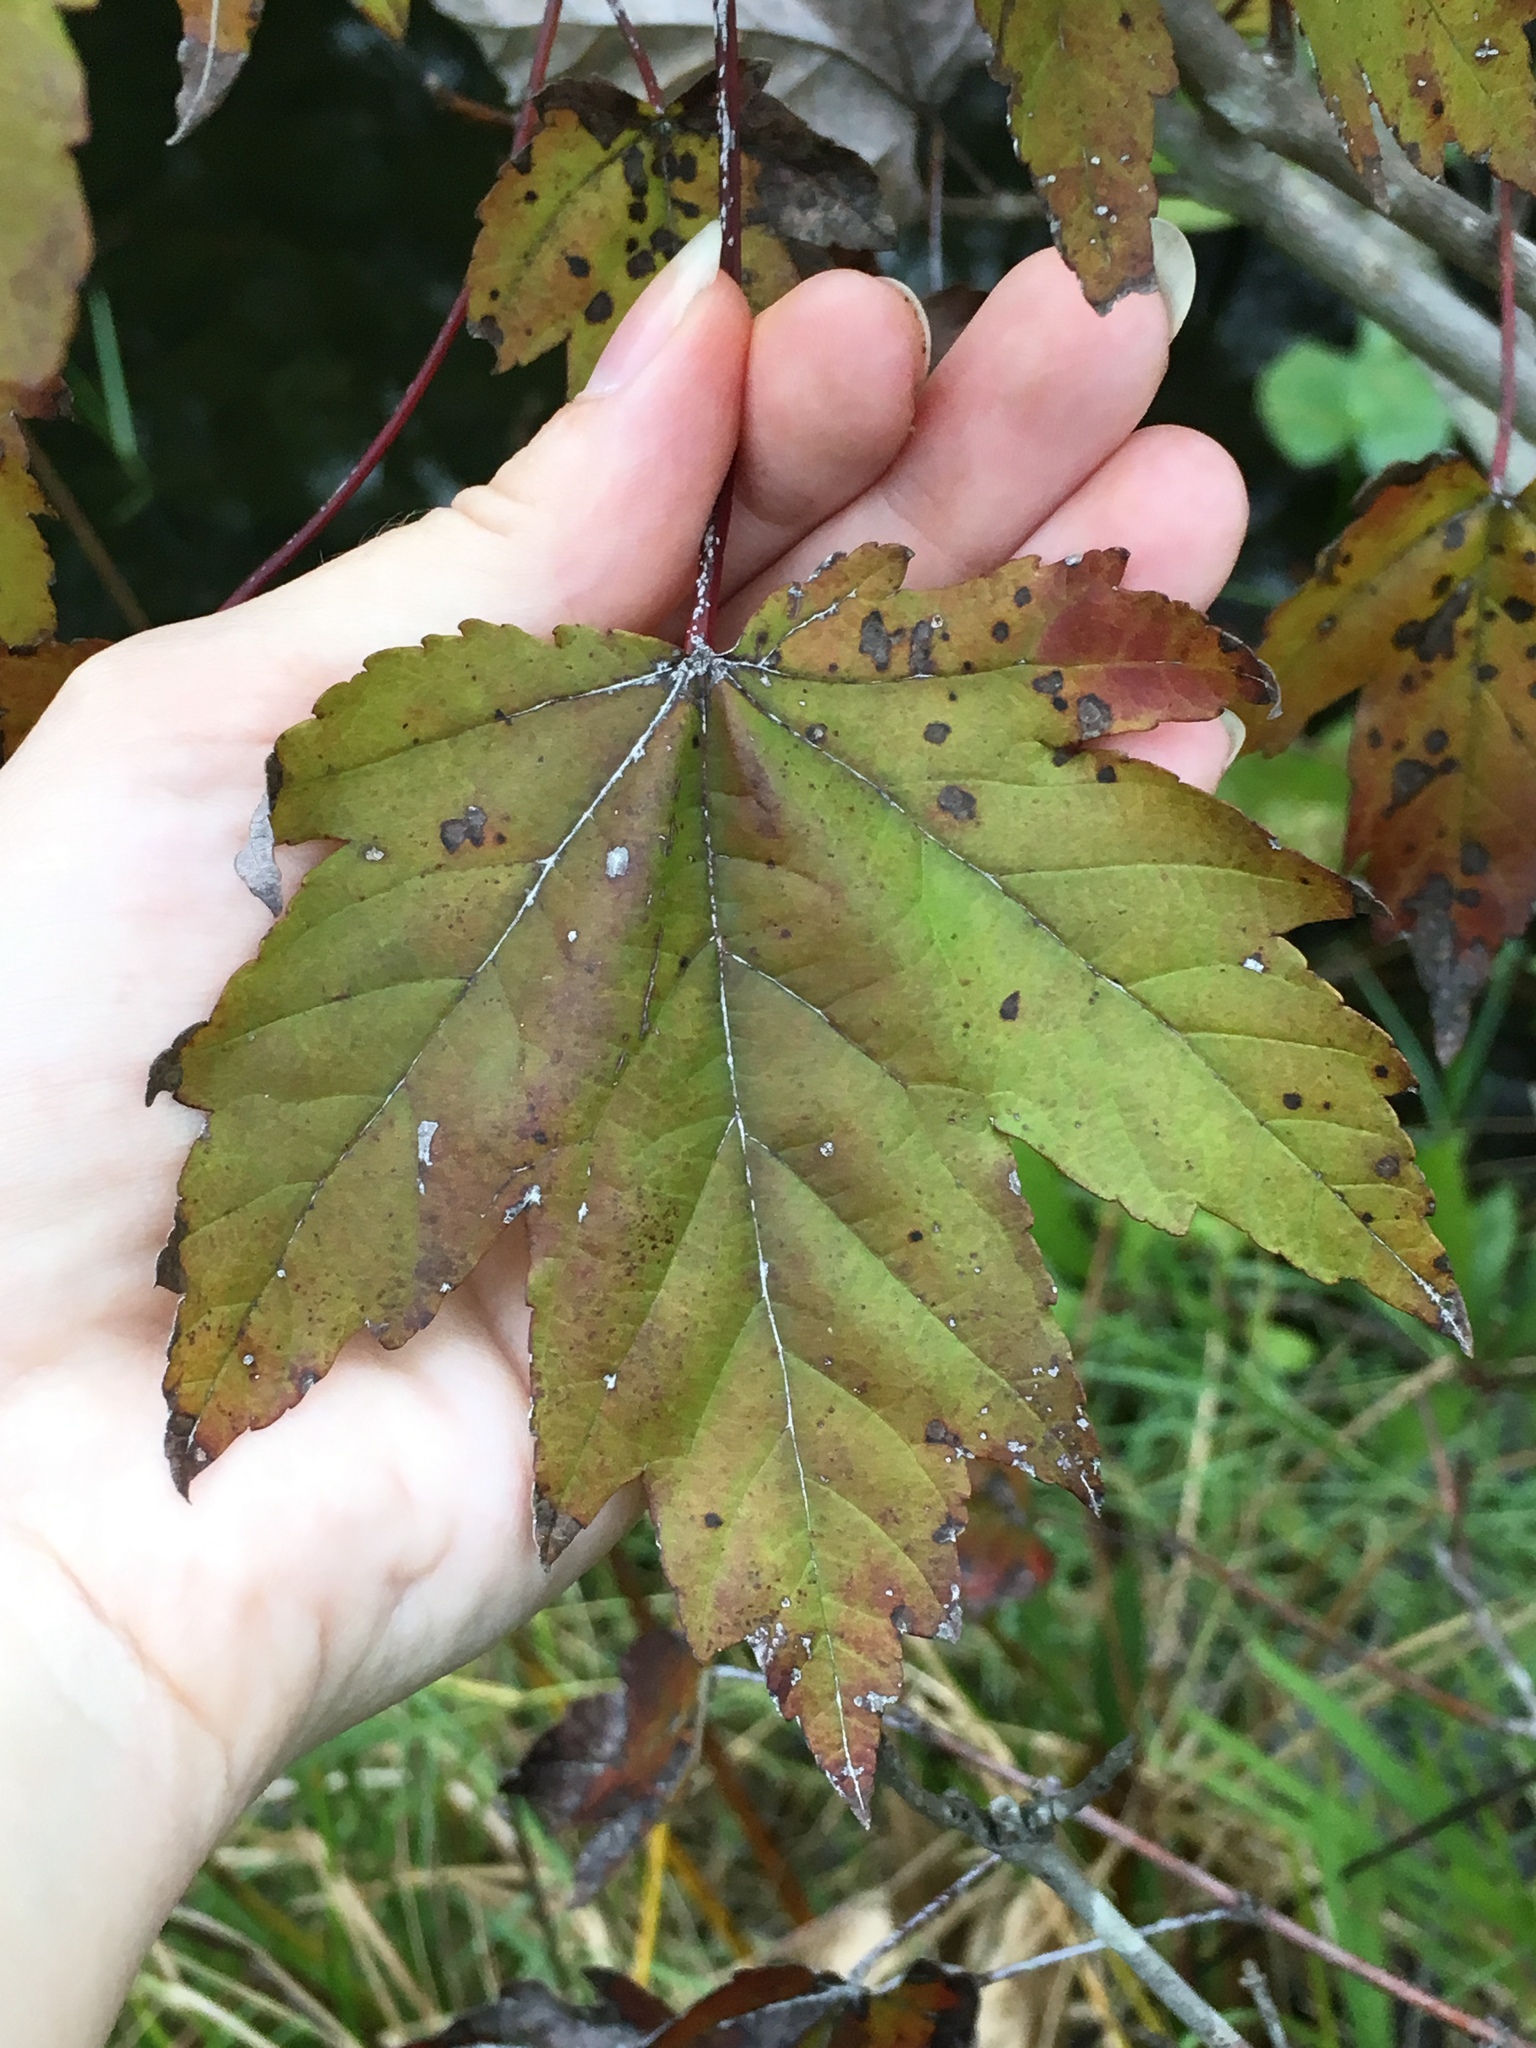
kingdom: Plantae
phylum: Tracheophyta
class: Magnoliopsida
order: Sapindales
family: Sapindaceae
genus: Acer
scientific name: Acer rubrum
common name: Red maple
